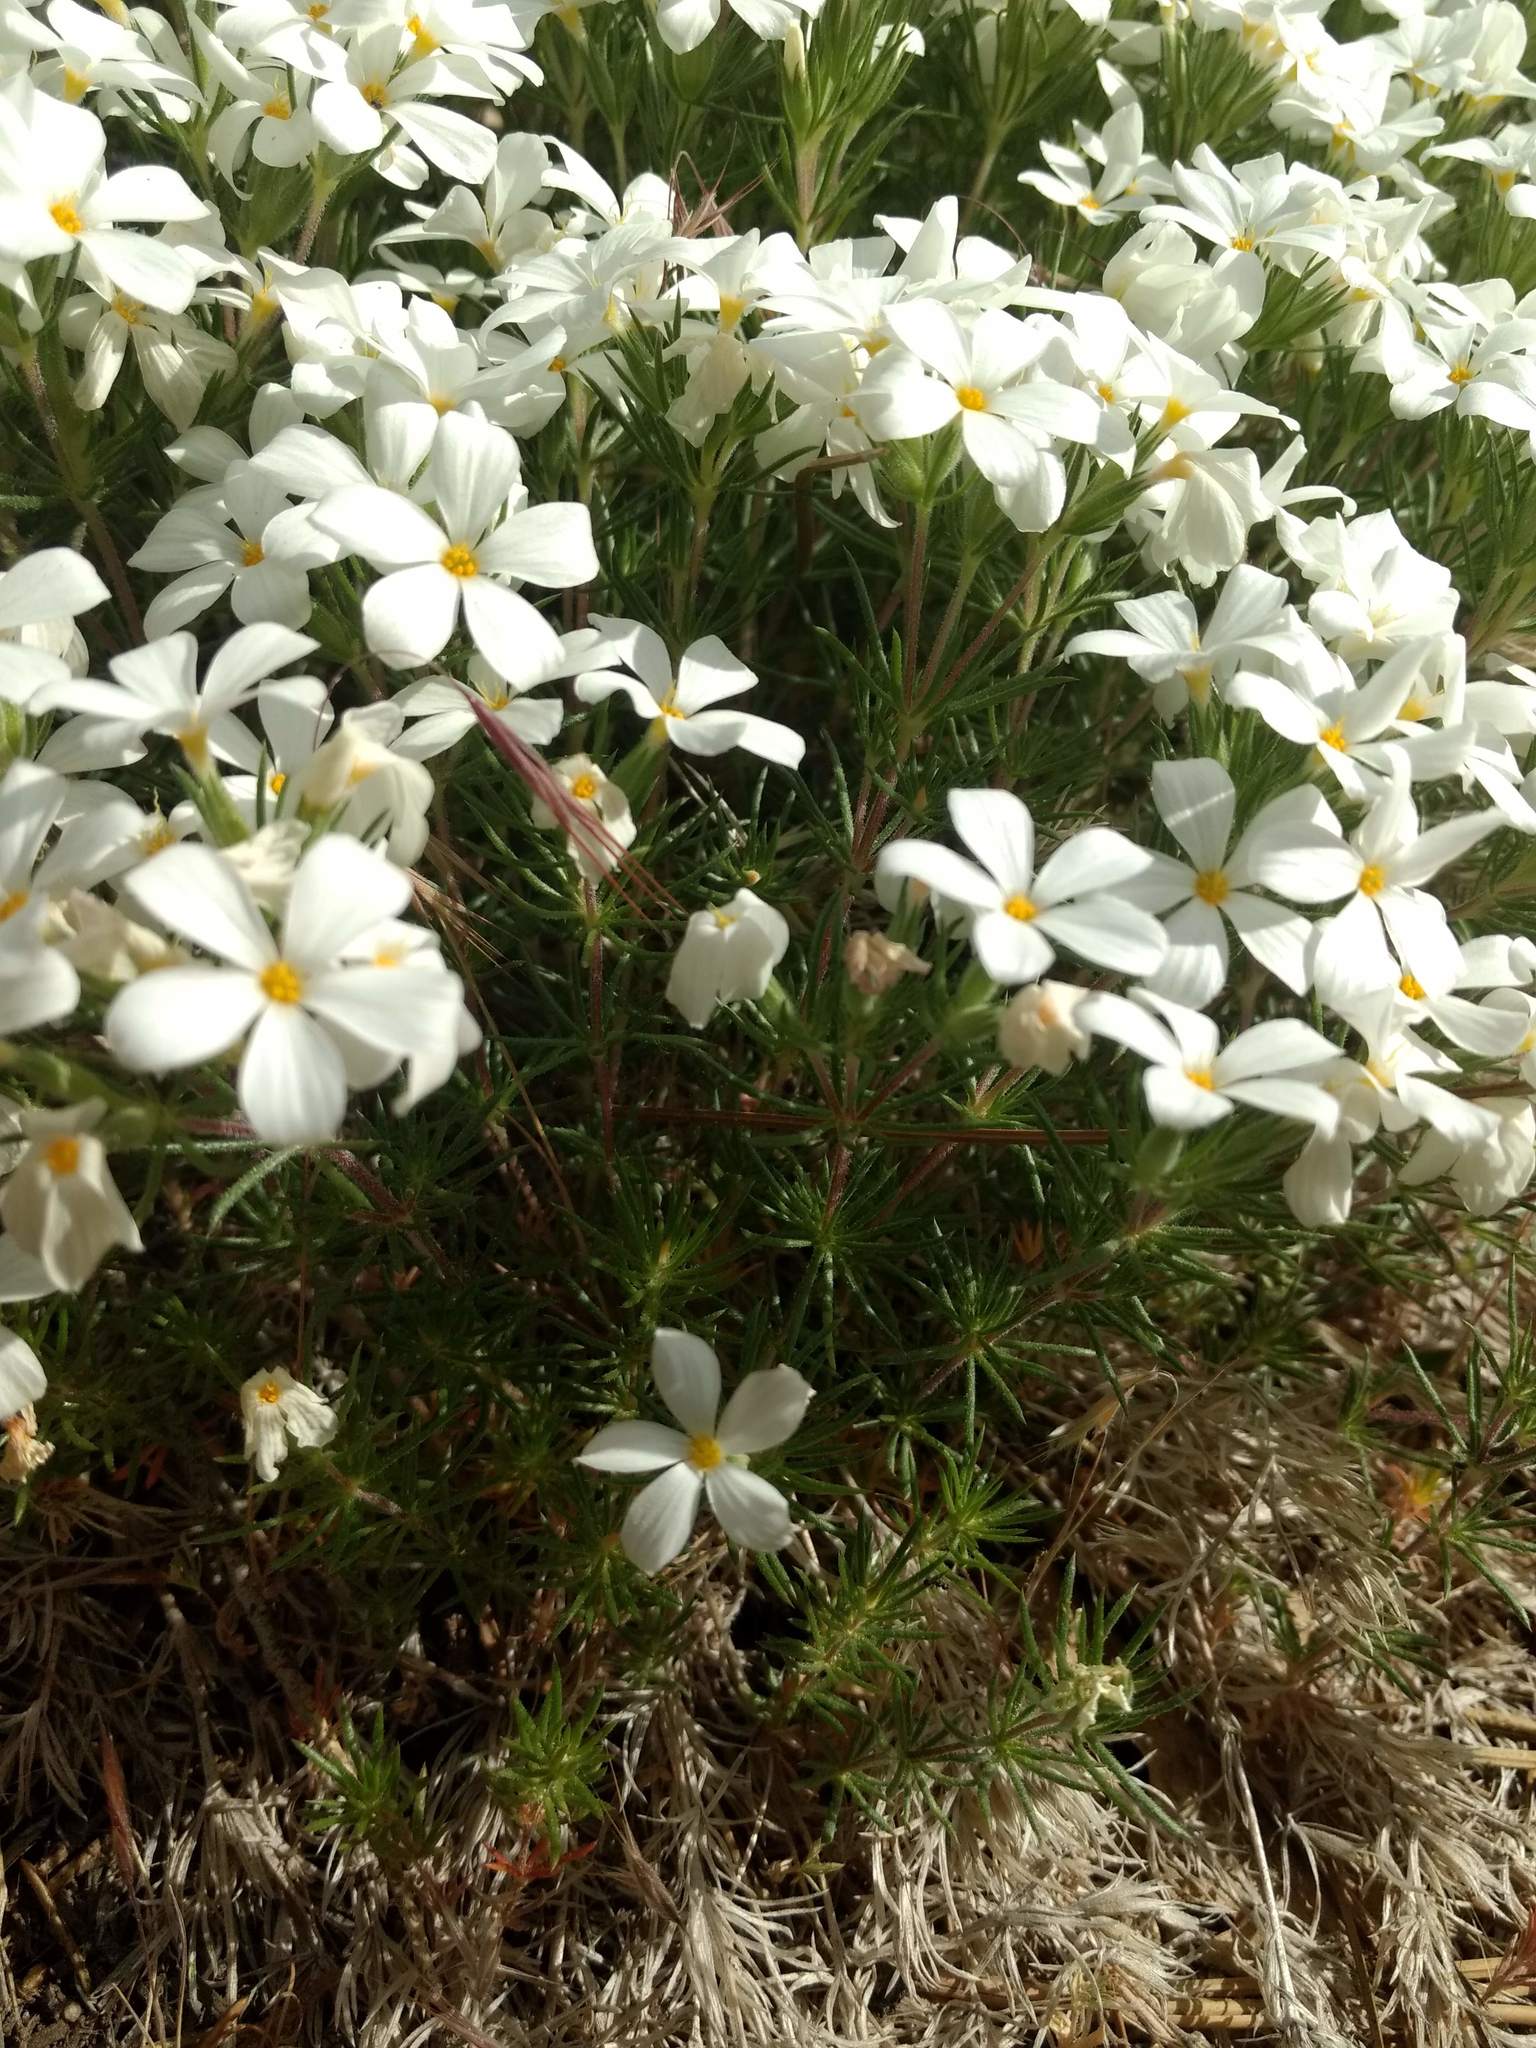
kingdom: Plantae
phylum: Tracheophyta
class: Magnoliopsida
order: Ericales
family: Polemoniaceae
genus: Leptosiphon
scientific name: Leptosiphon floribundum
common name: Many-flower linanthus
